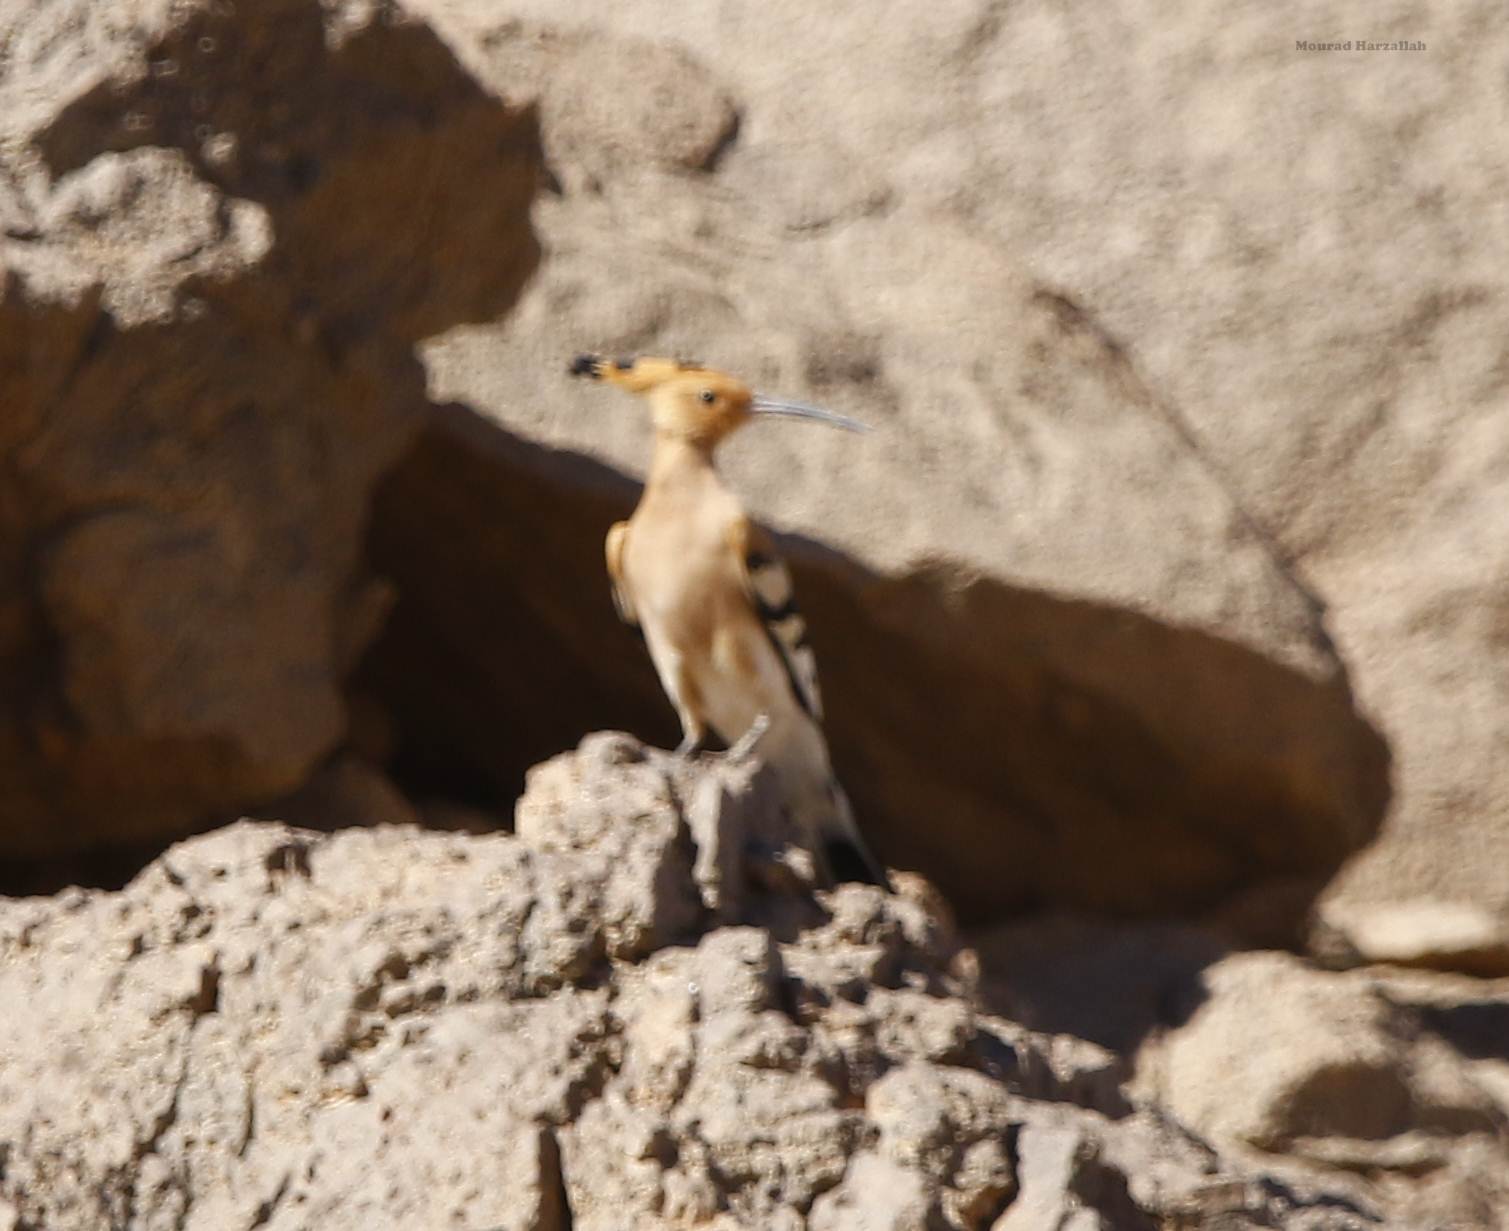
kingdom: Animalia
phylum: Chordata
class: Aves
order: Bucerotiformes
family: Upupidae
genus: Upupa
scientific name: Upupa epops
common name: Eurasian hoopoe
